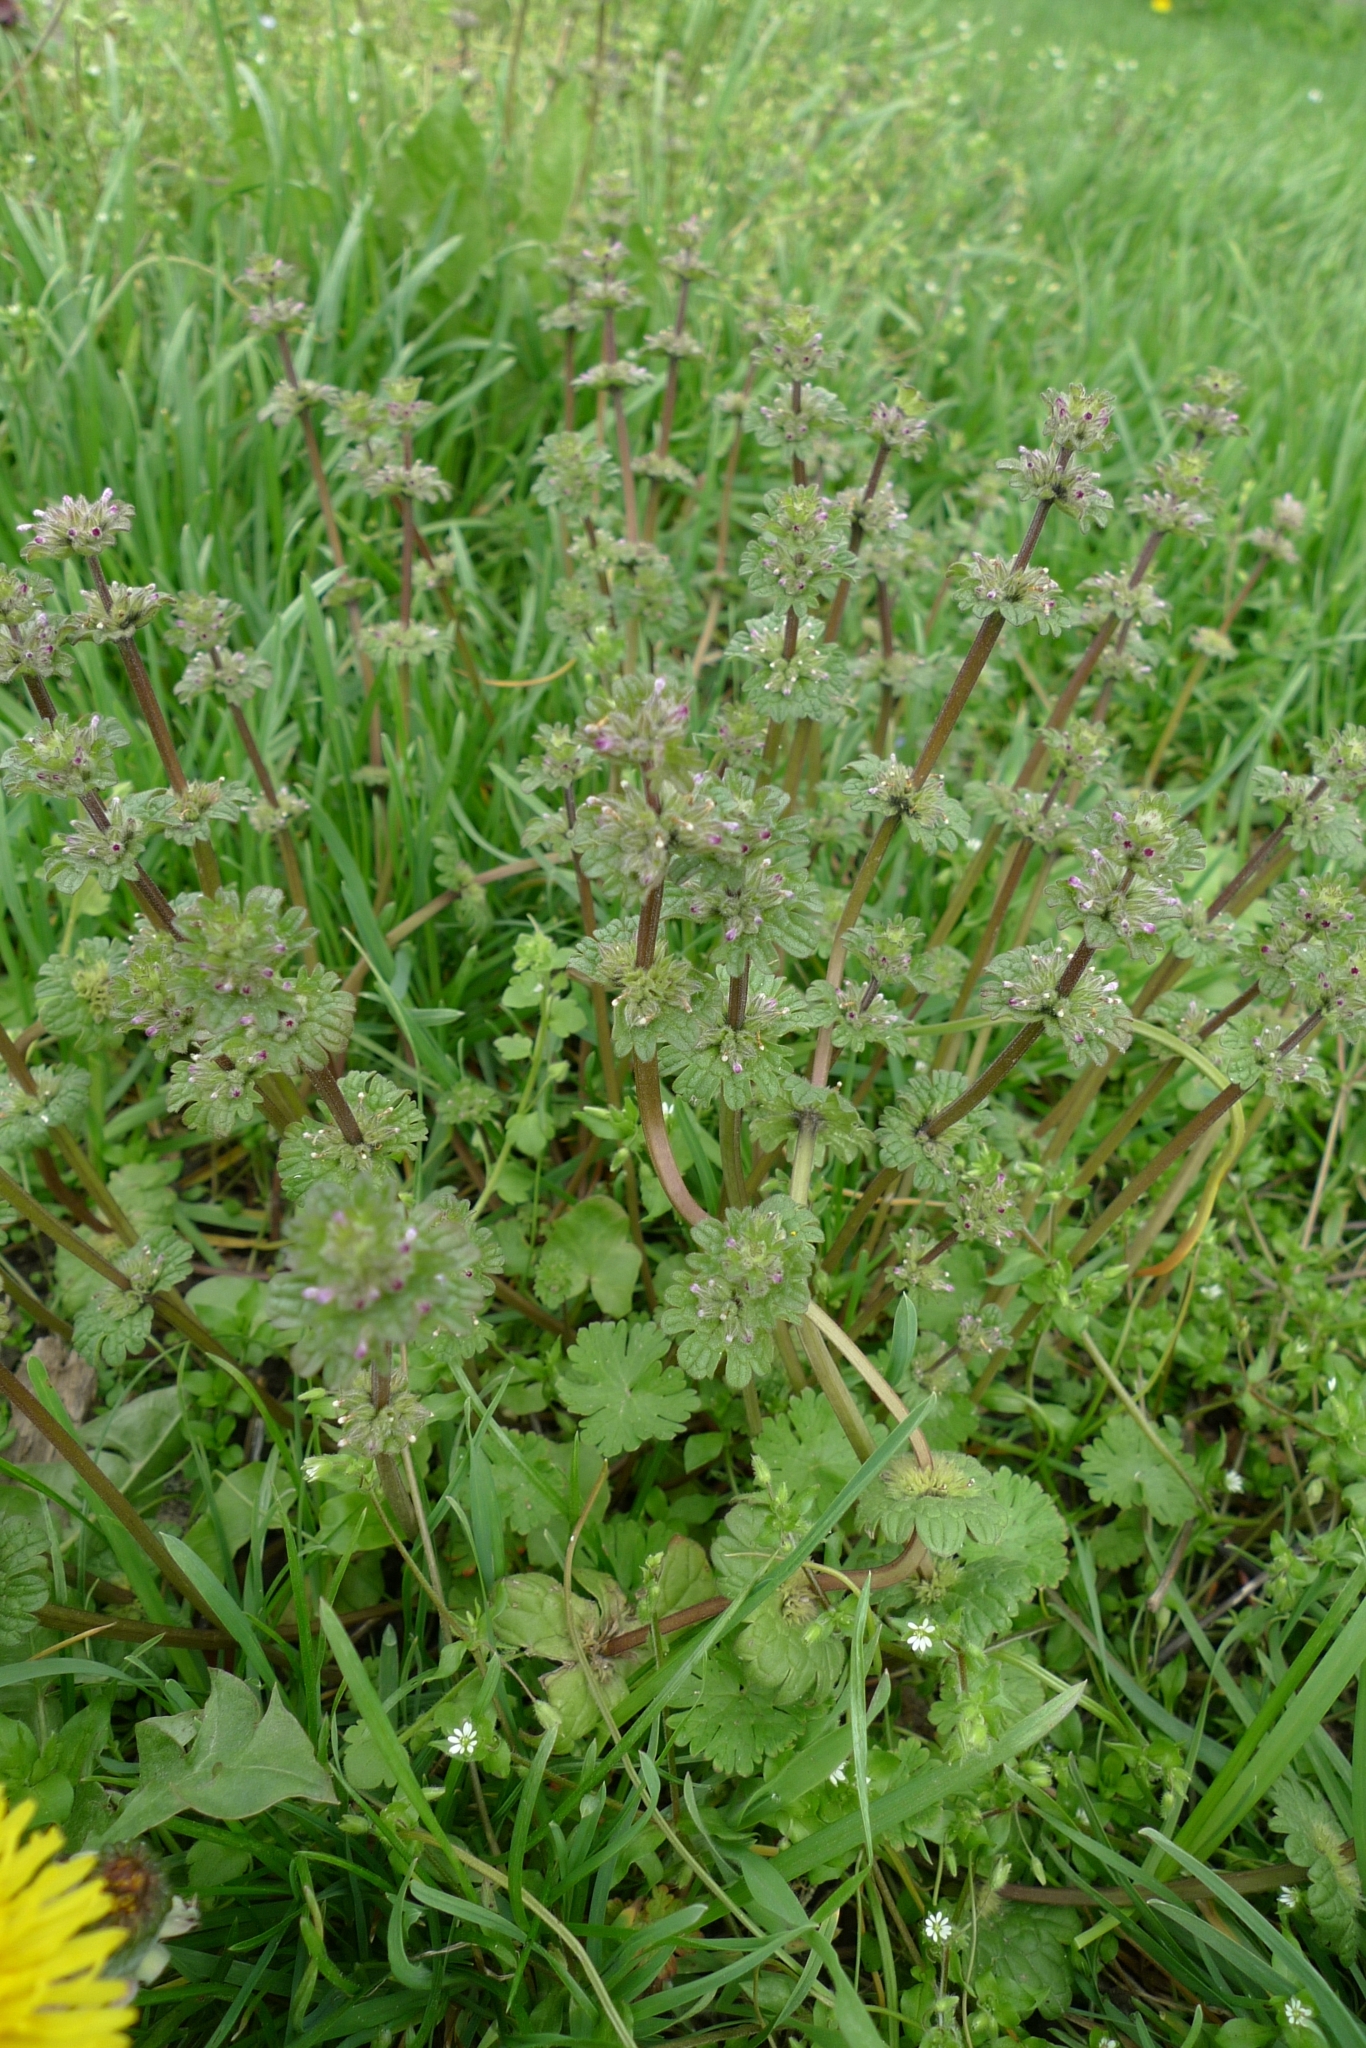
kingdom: Plantae
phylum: Tracheophyta
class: Magnoliopsida
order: Lamiales
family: Lamiaceae
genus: Lamium
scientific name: Lamium amplexicaule
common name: Henbit dead-nettle
